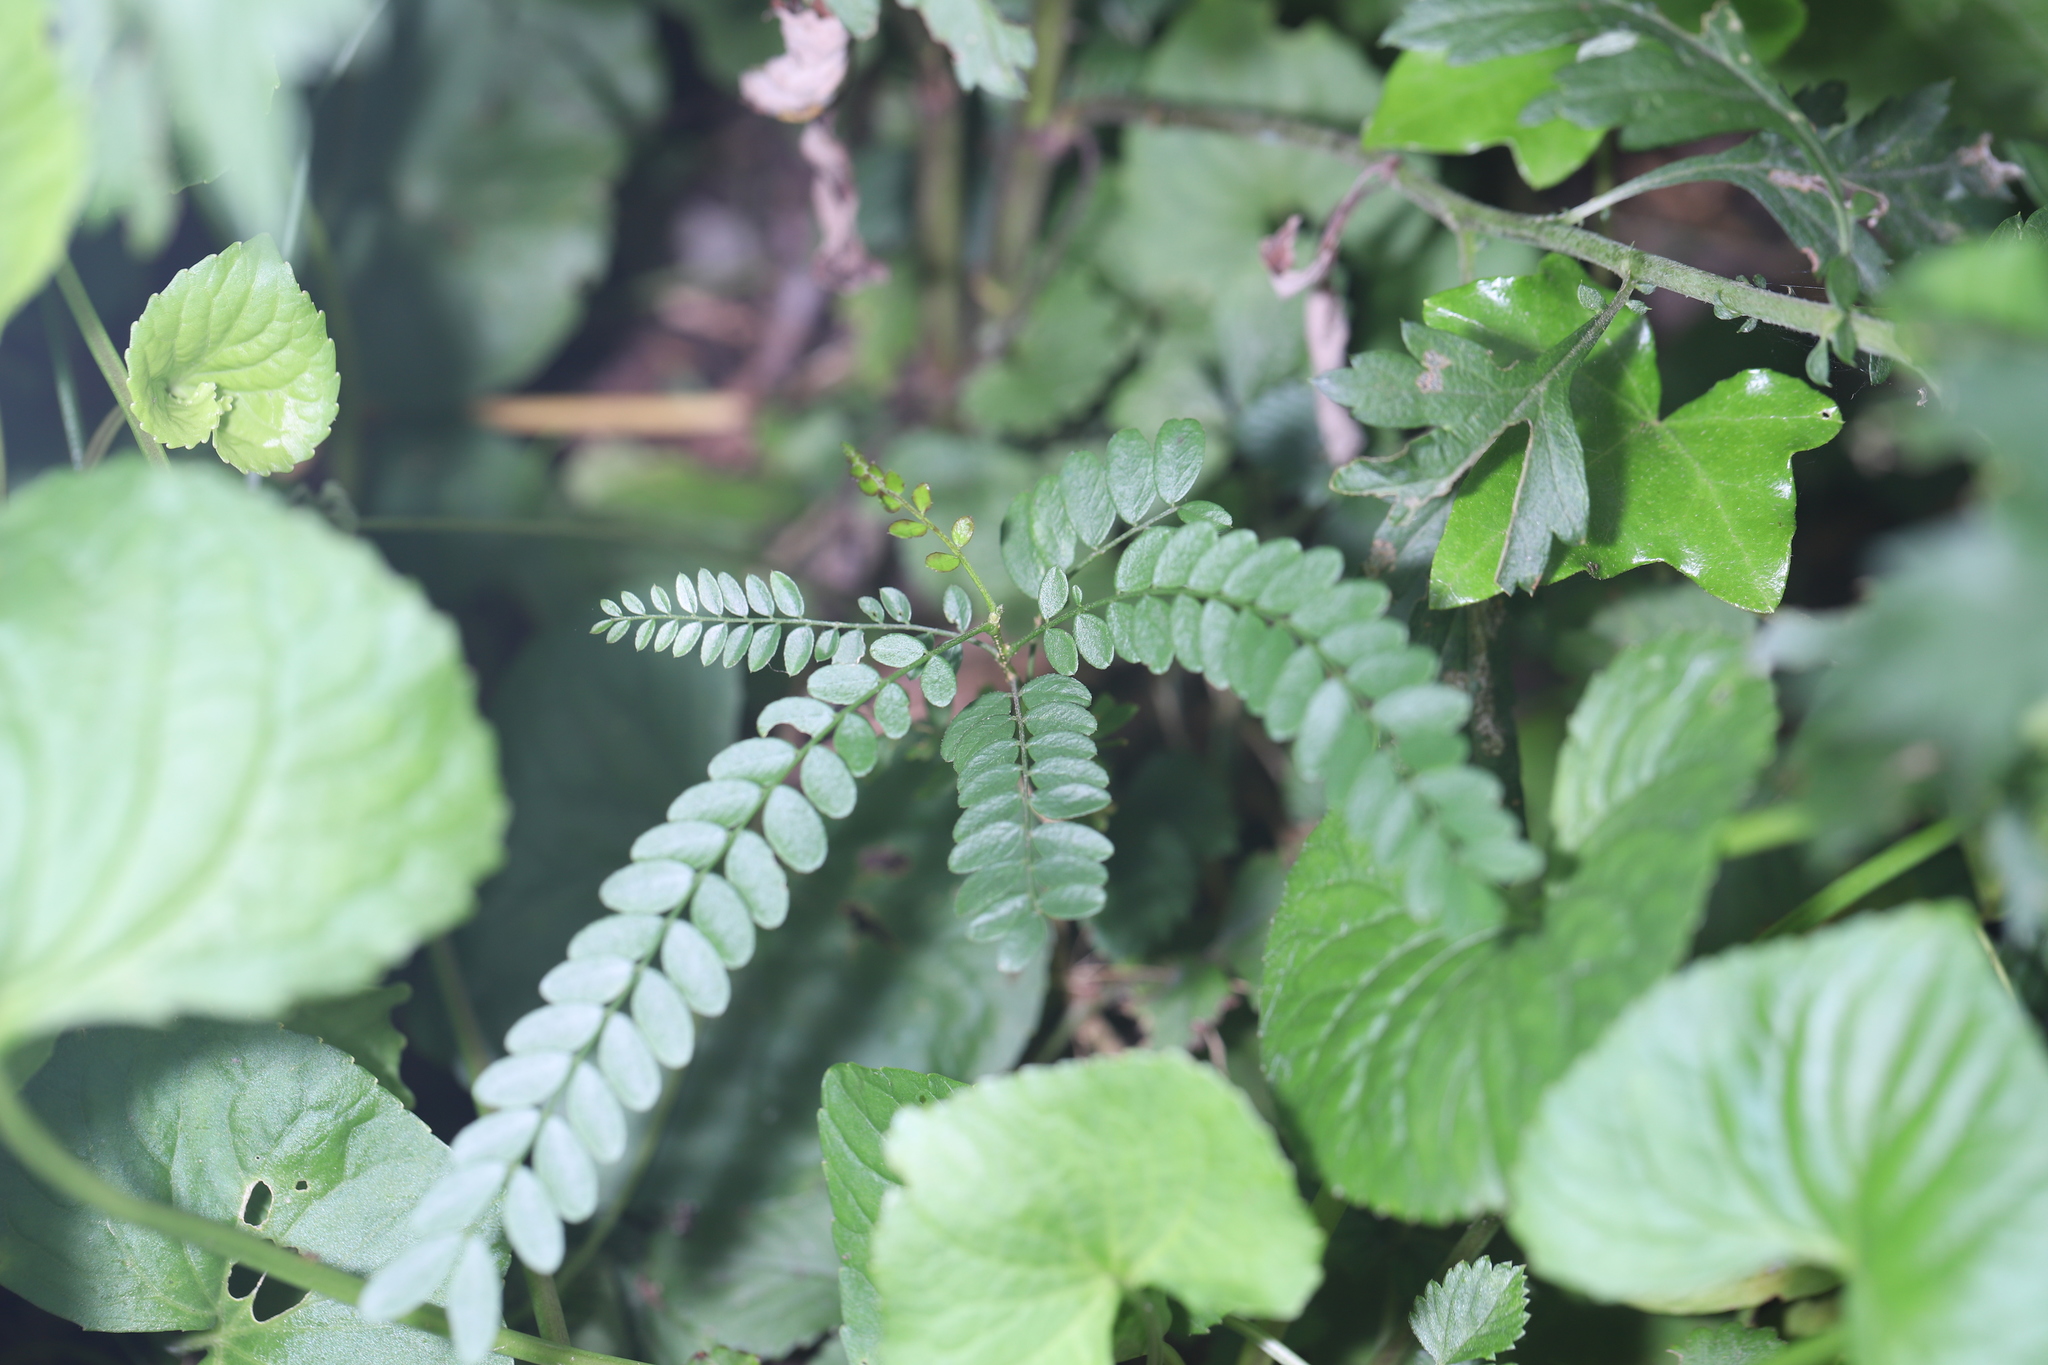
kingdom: Plantae
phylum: Tracheophyta
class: Magnoliopsida
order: Fabales
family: Fabaceae
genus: Gleditsia
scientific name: Gleditsia triacanthos
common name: Common honeylocust
